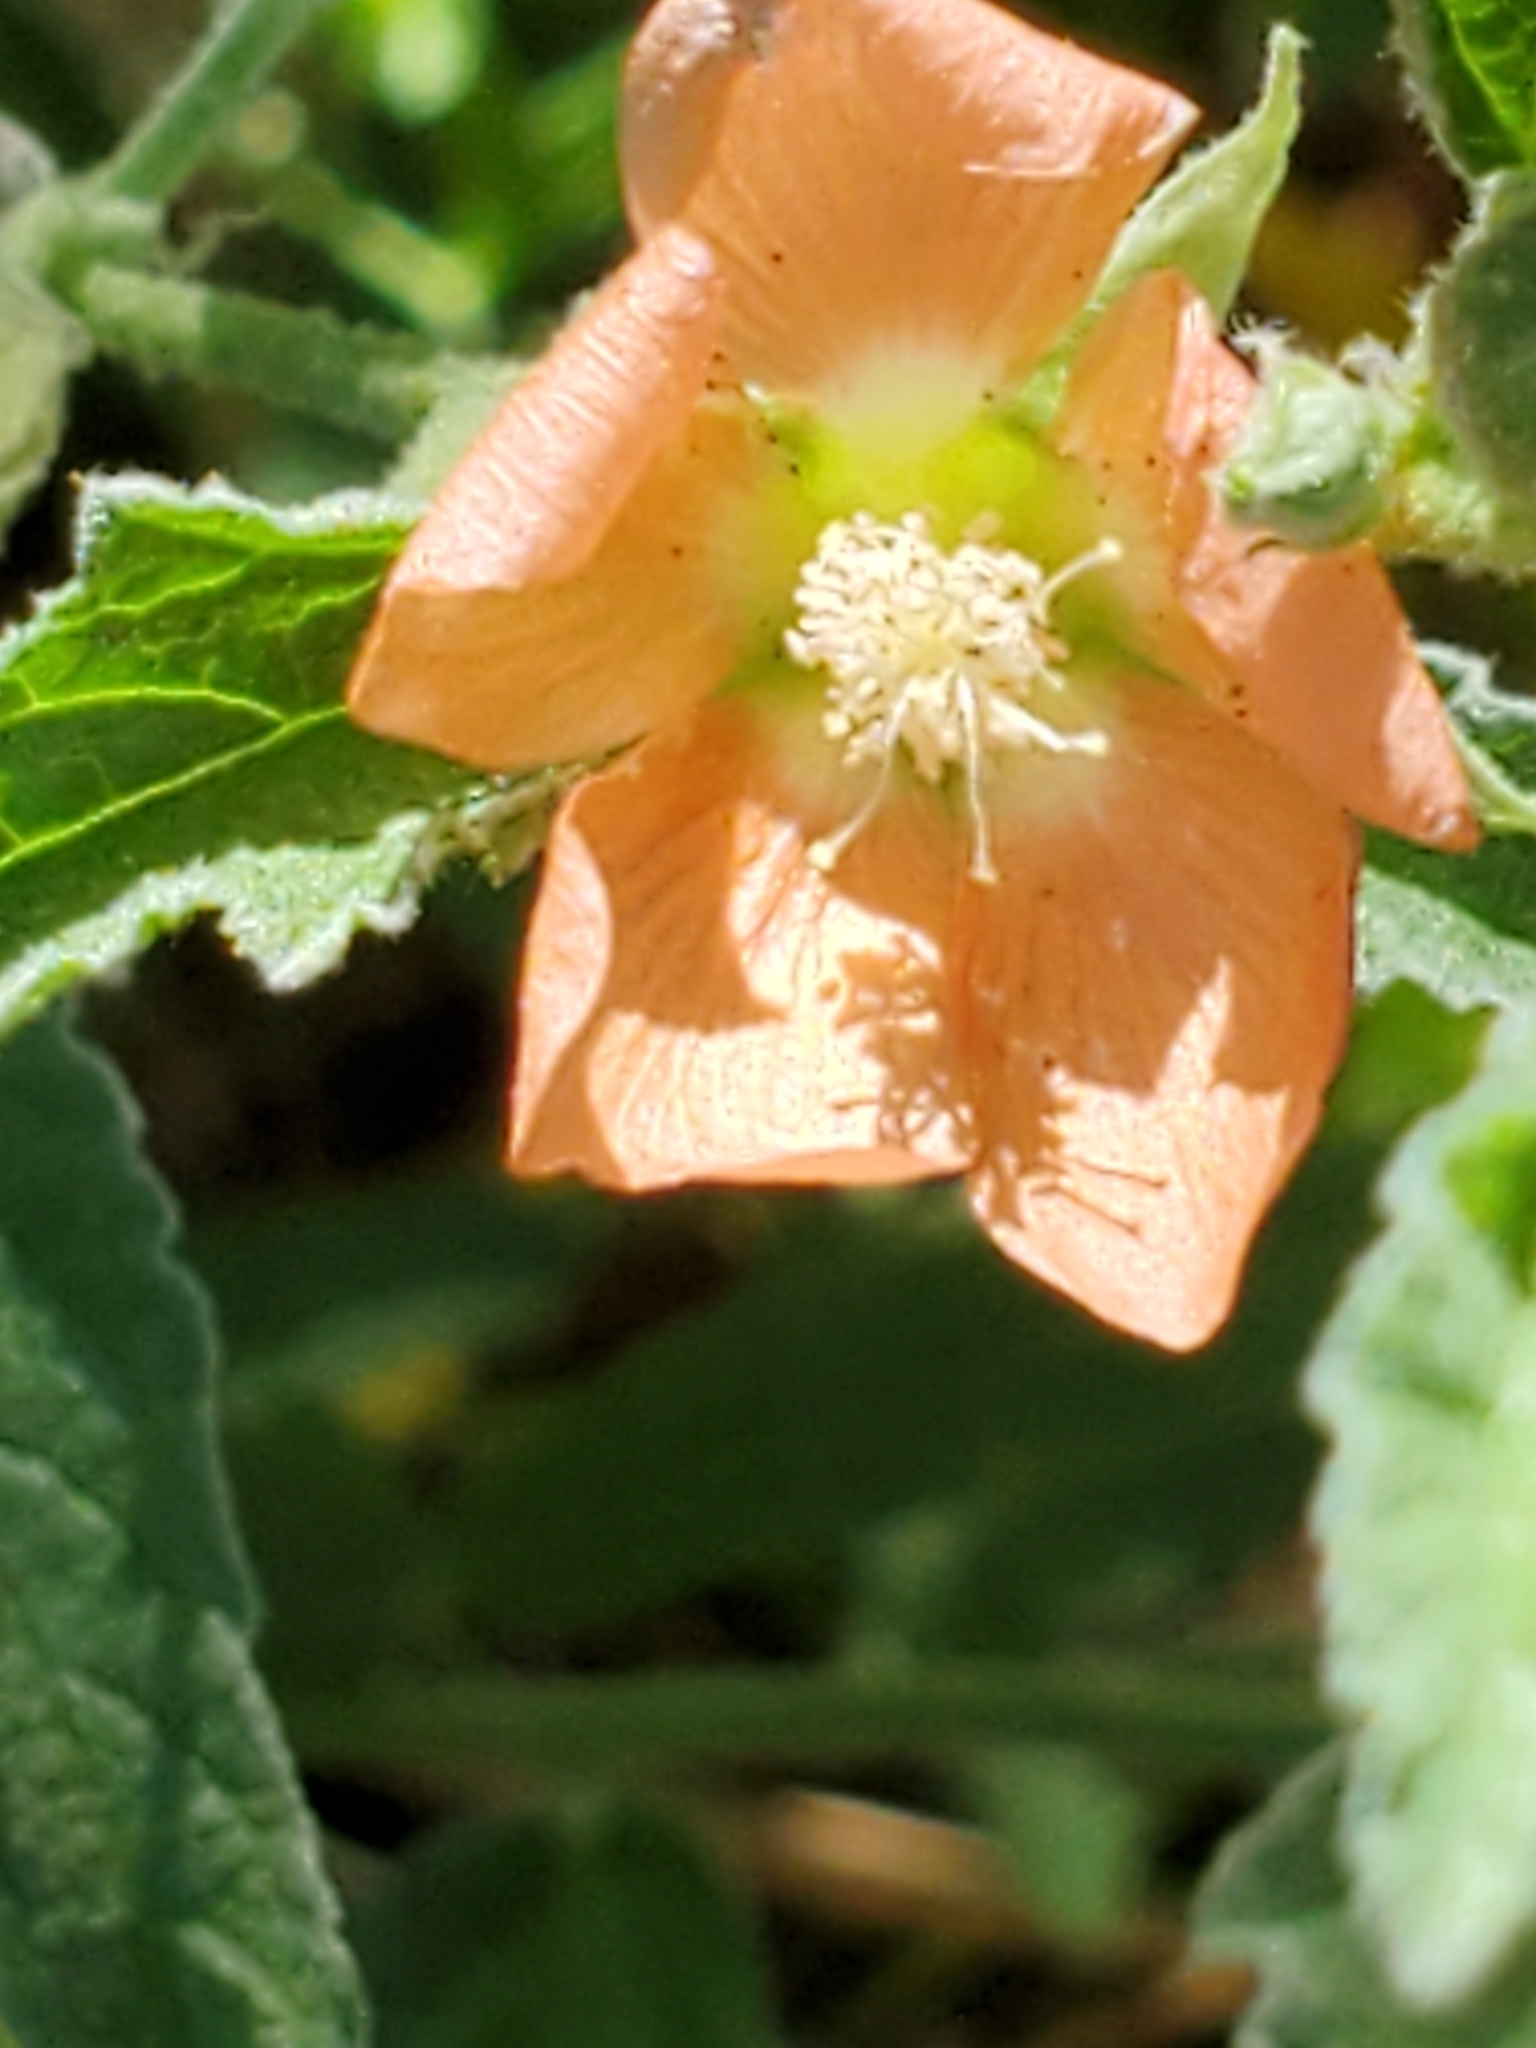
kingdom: Plantae
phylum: Tracheophyta
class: Magnoliopsida
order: Malvales
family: Malvaceae
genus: Sphaeralcea
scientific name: Sphaeralcea angustifolia
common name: Copper globe-mallow
